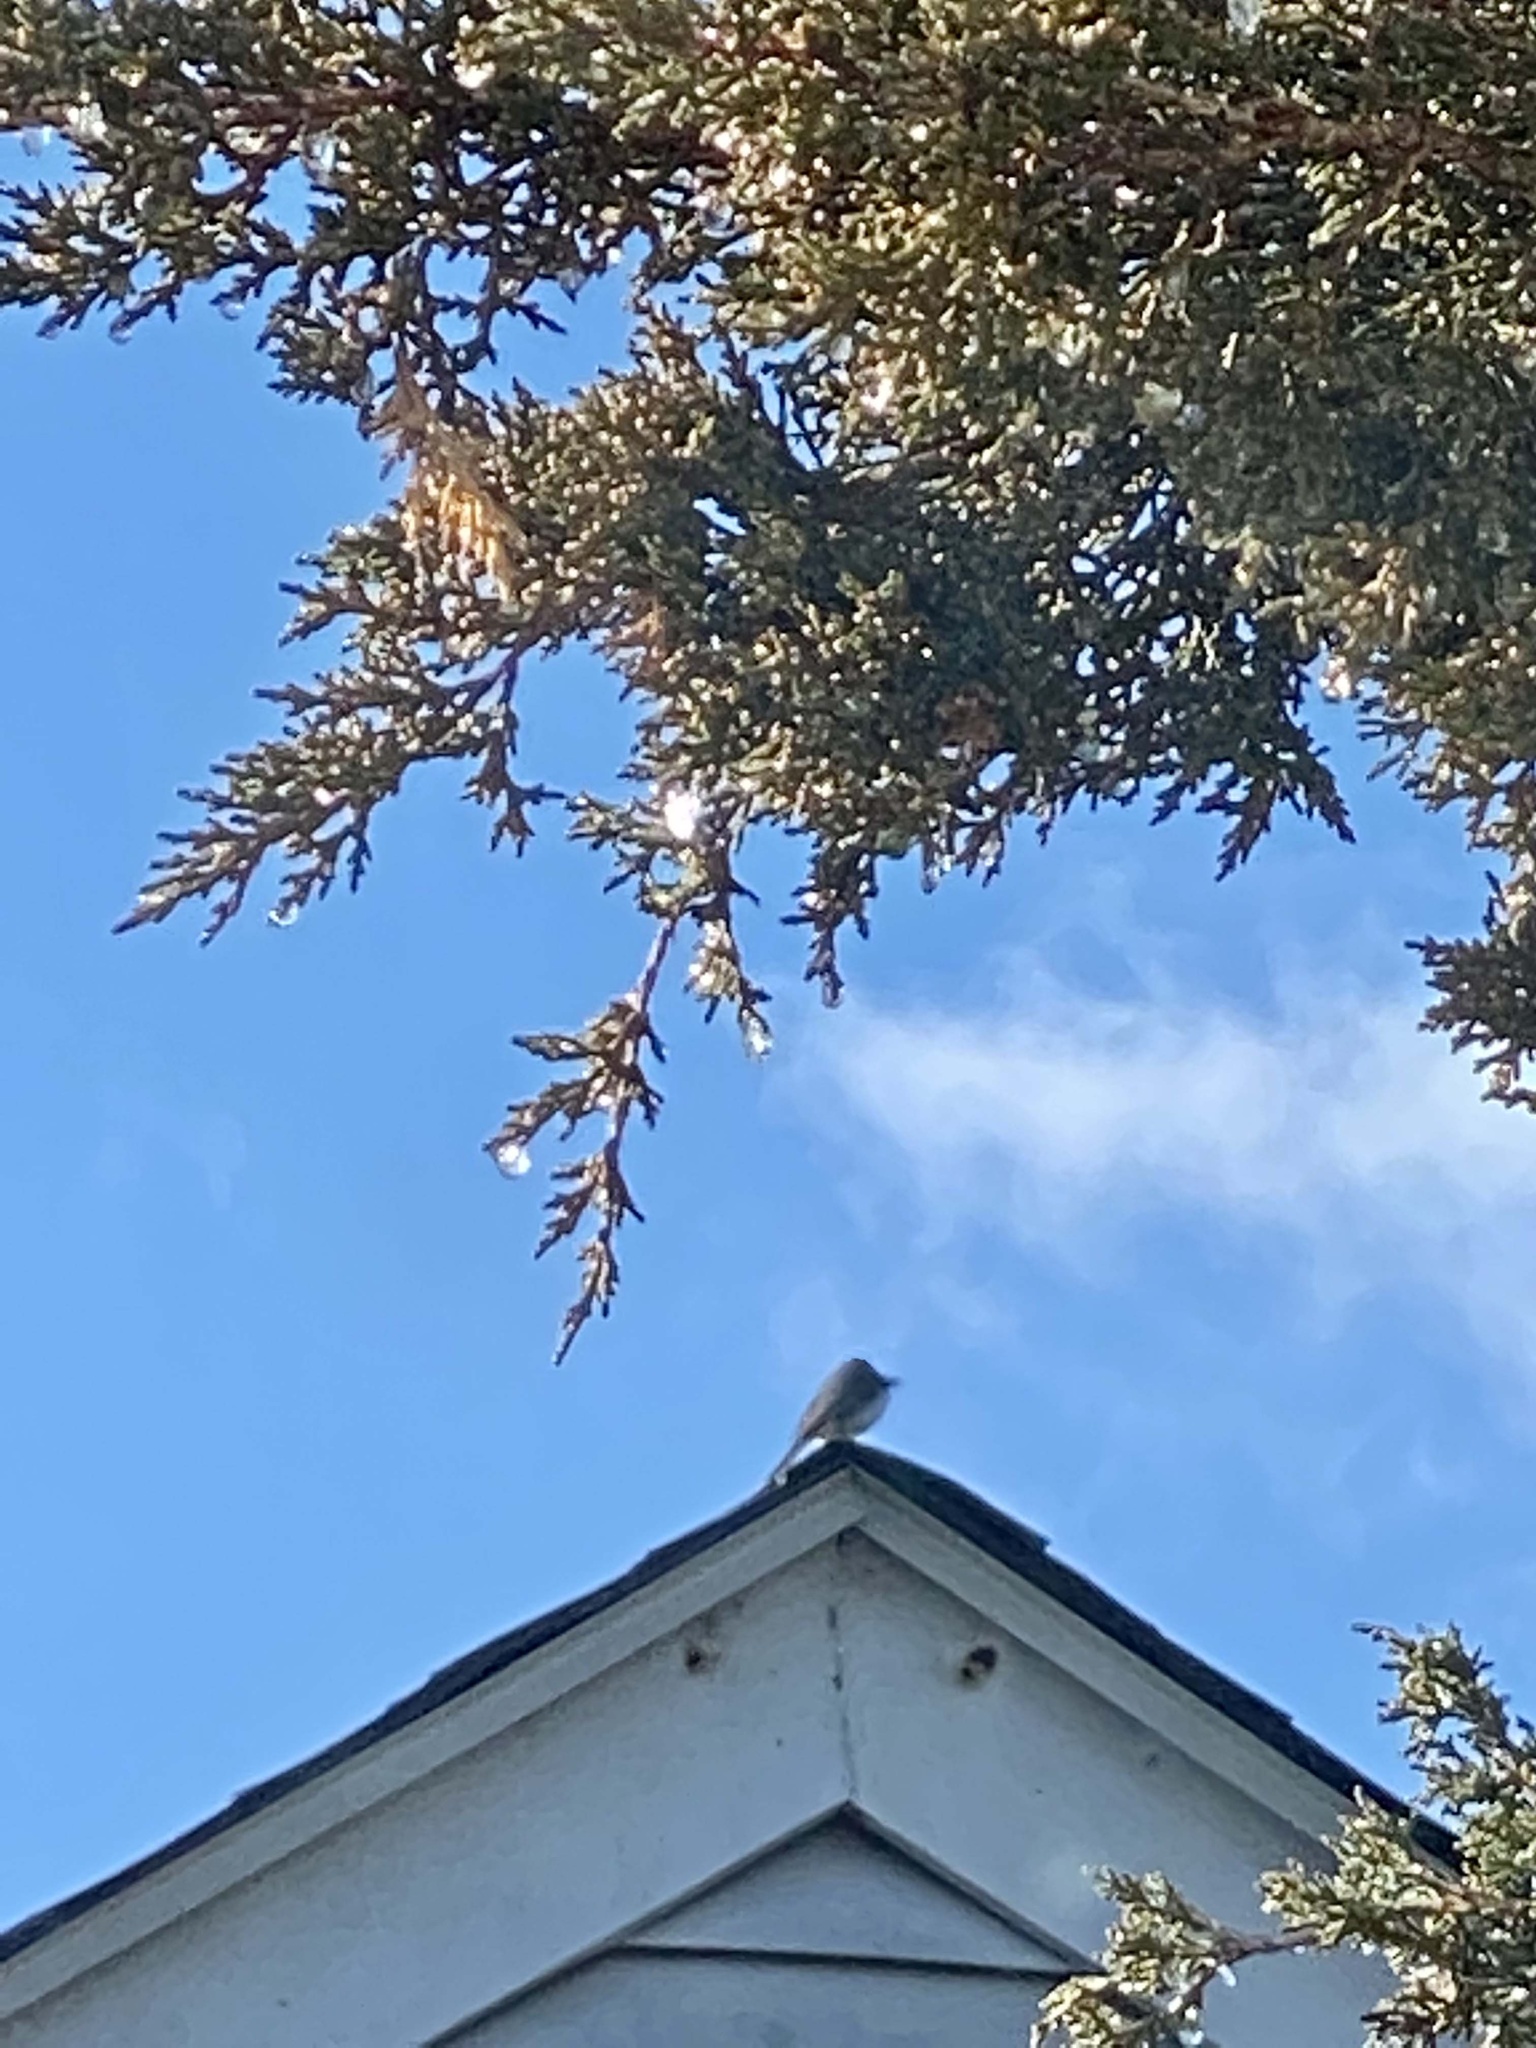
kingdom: Animalia
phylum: Chordata
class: Aves
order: Passeriformes
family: Passerellidae
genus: Junco
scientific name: Junco hyemalis
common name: Dark-eyed junco
